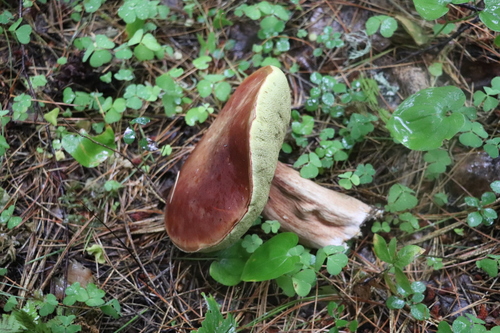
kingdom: Fungi
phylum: Basidiomycota
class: Agaricomycetes
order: Boletales
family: Boletaceae
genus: Boletus
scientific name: Boletus edulis
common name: Cep
